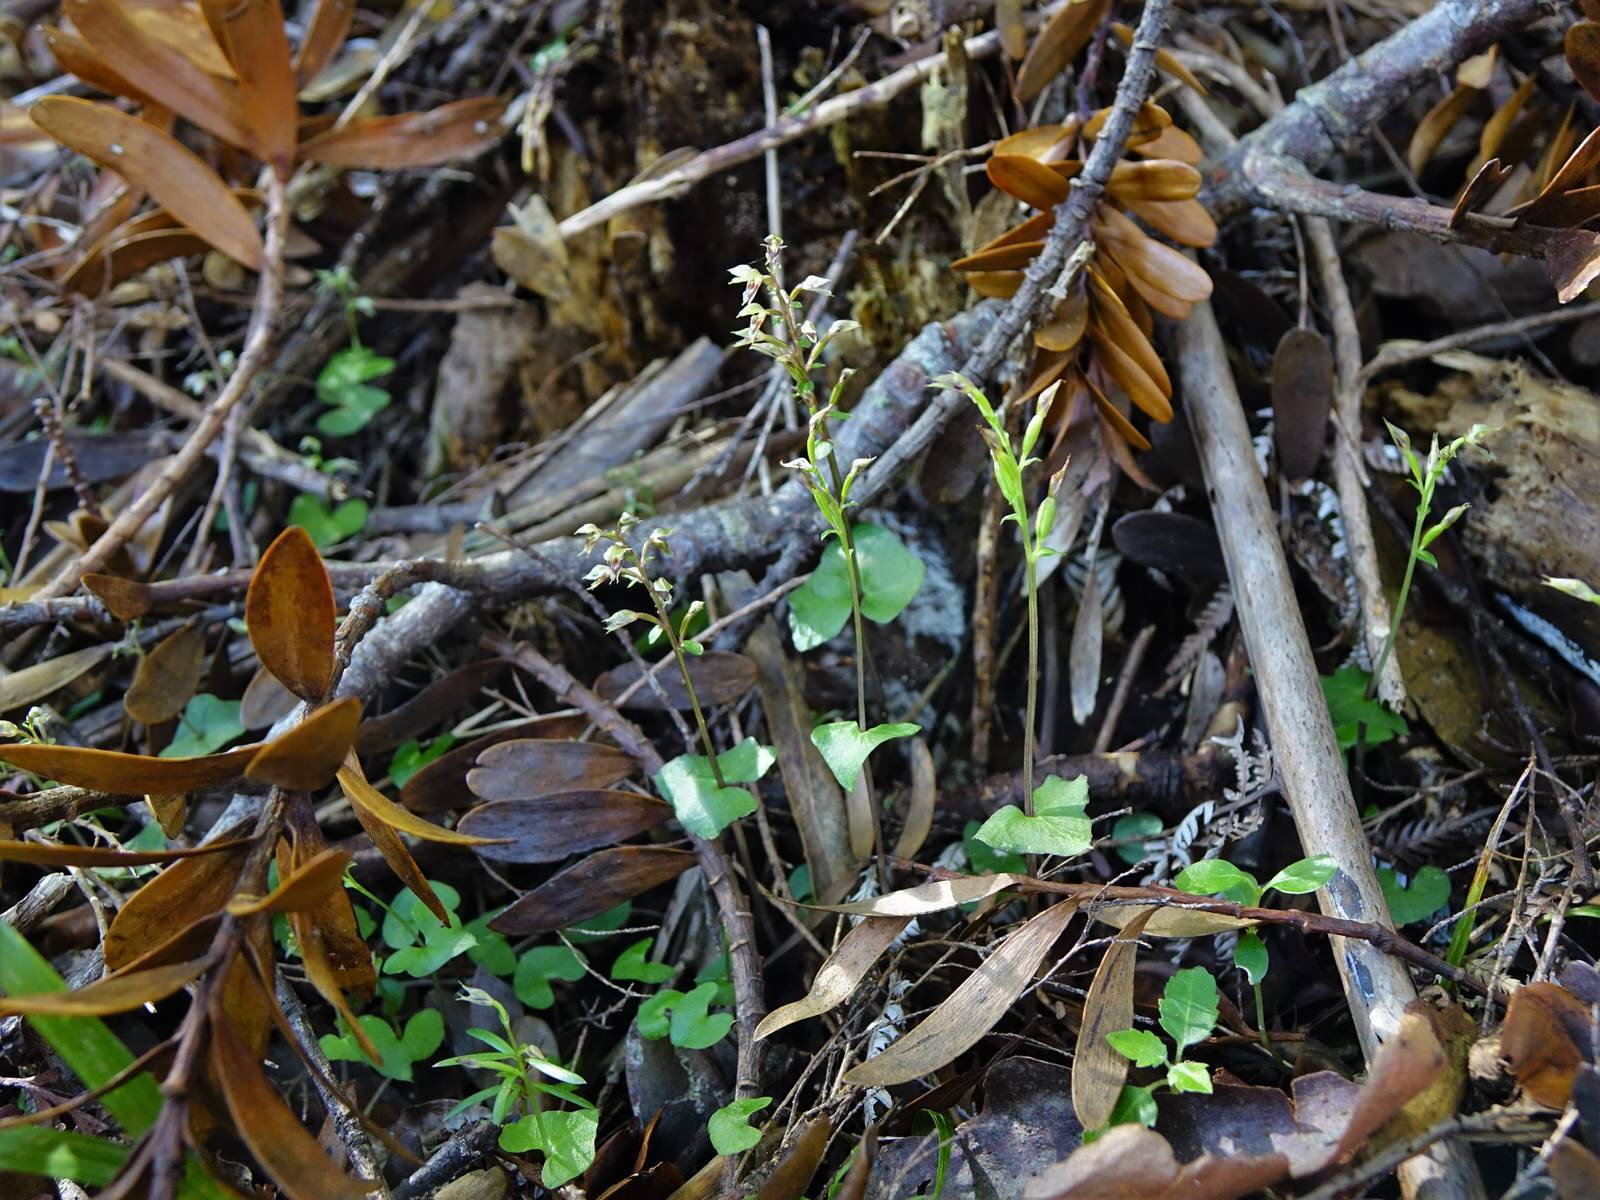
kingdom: Plantae
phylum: Tracheophyta
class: Liliopsida
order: Asparagales
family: Orchidaceae
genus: Acianthus
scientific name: Acianthus sinclairii
